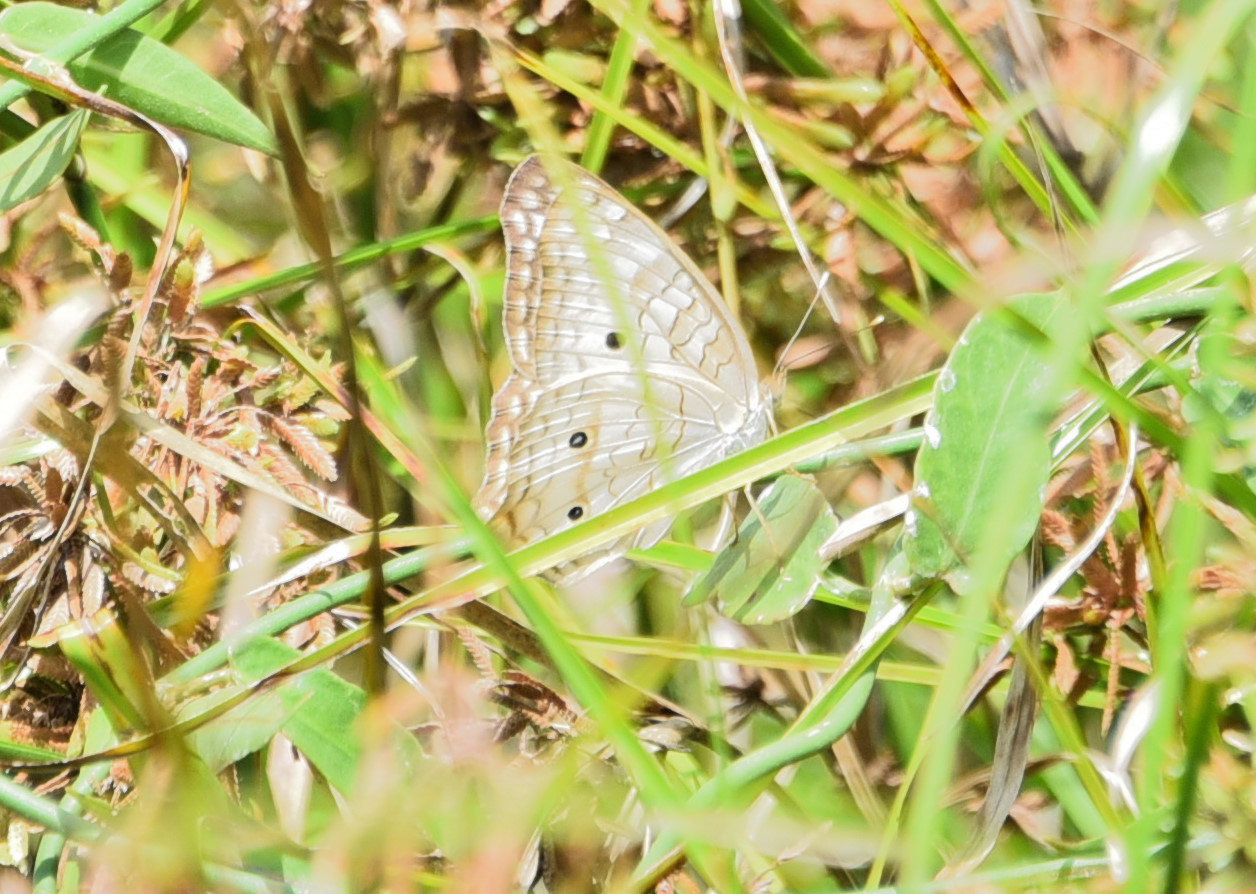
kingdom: Animalia
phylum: Arthropoda
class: Insecta
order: Lepidoptera
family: Nymphalidae
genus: Anartia
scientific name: Anartia jatrophae
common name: White peacock
